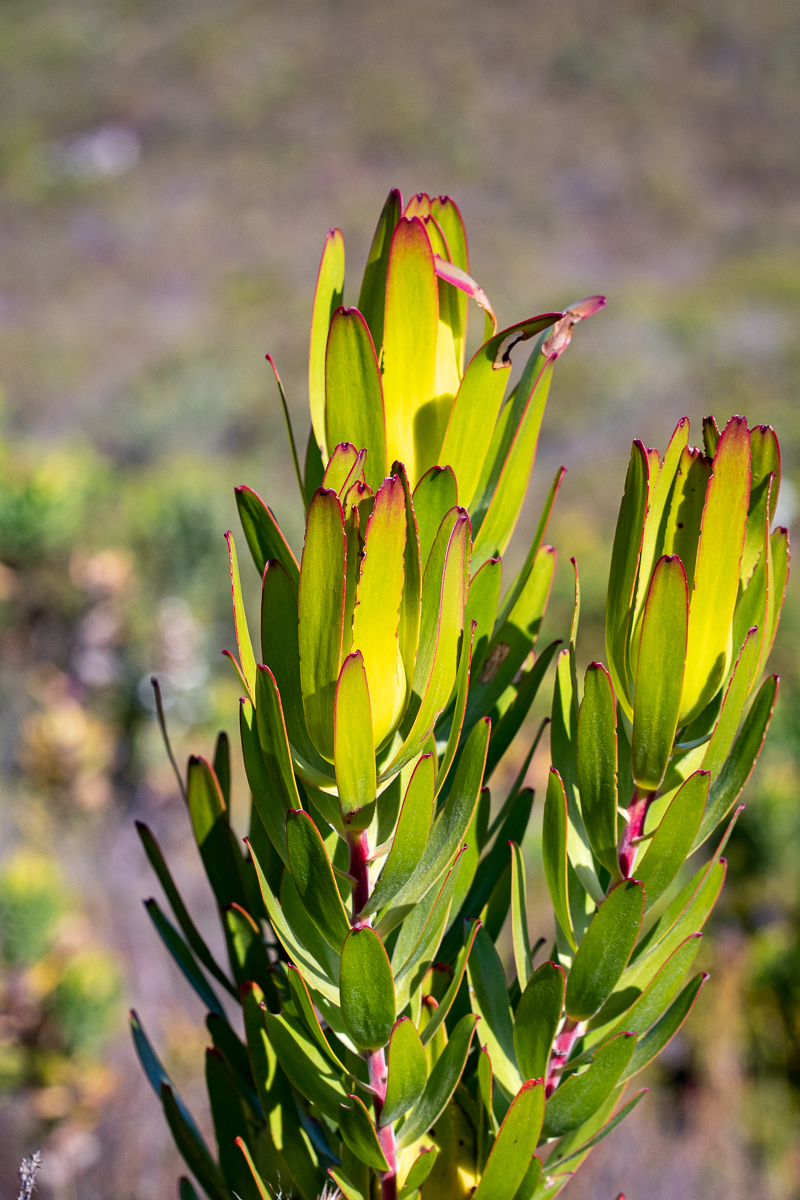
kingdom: Plantae
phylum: Tracheophyta
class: Magnoliopsida
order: Proteales
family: Proteaceae
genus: Leucadendron
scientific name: Leucadendron laureolum
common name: Golden sunshinebush
